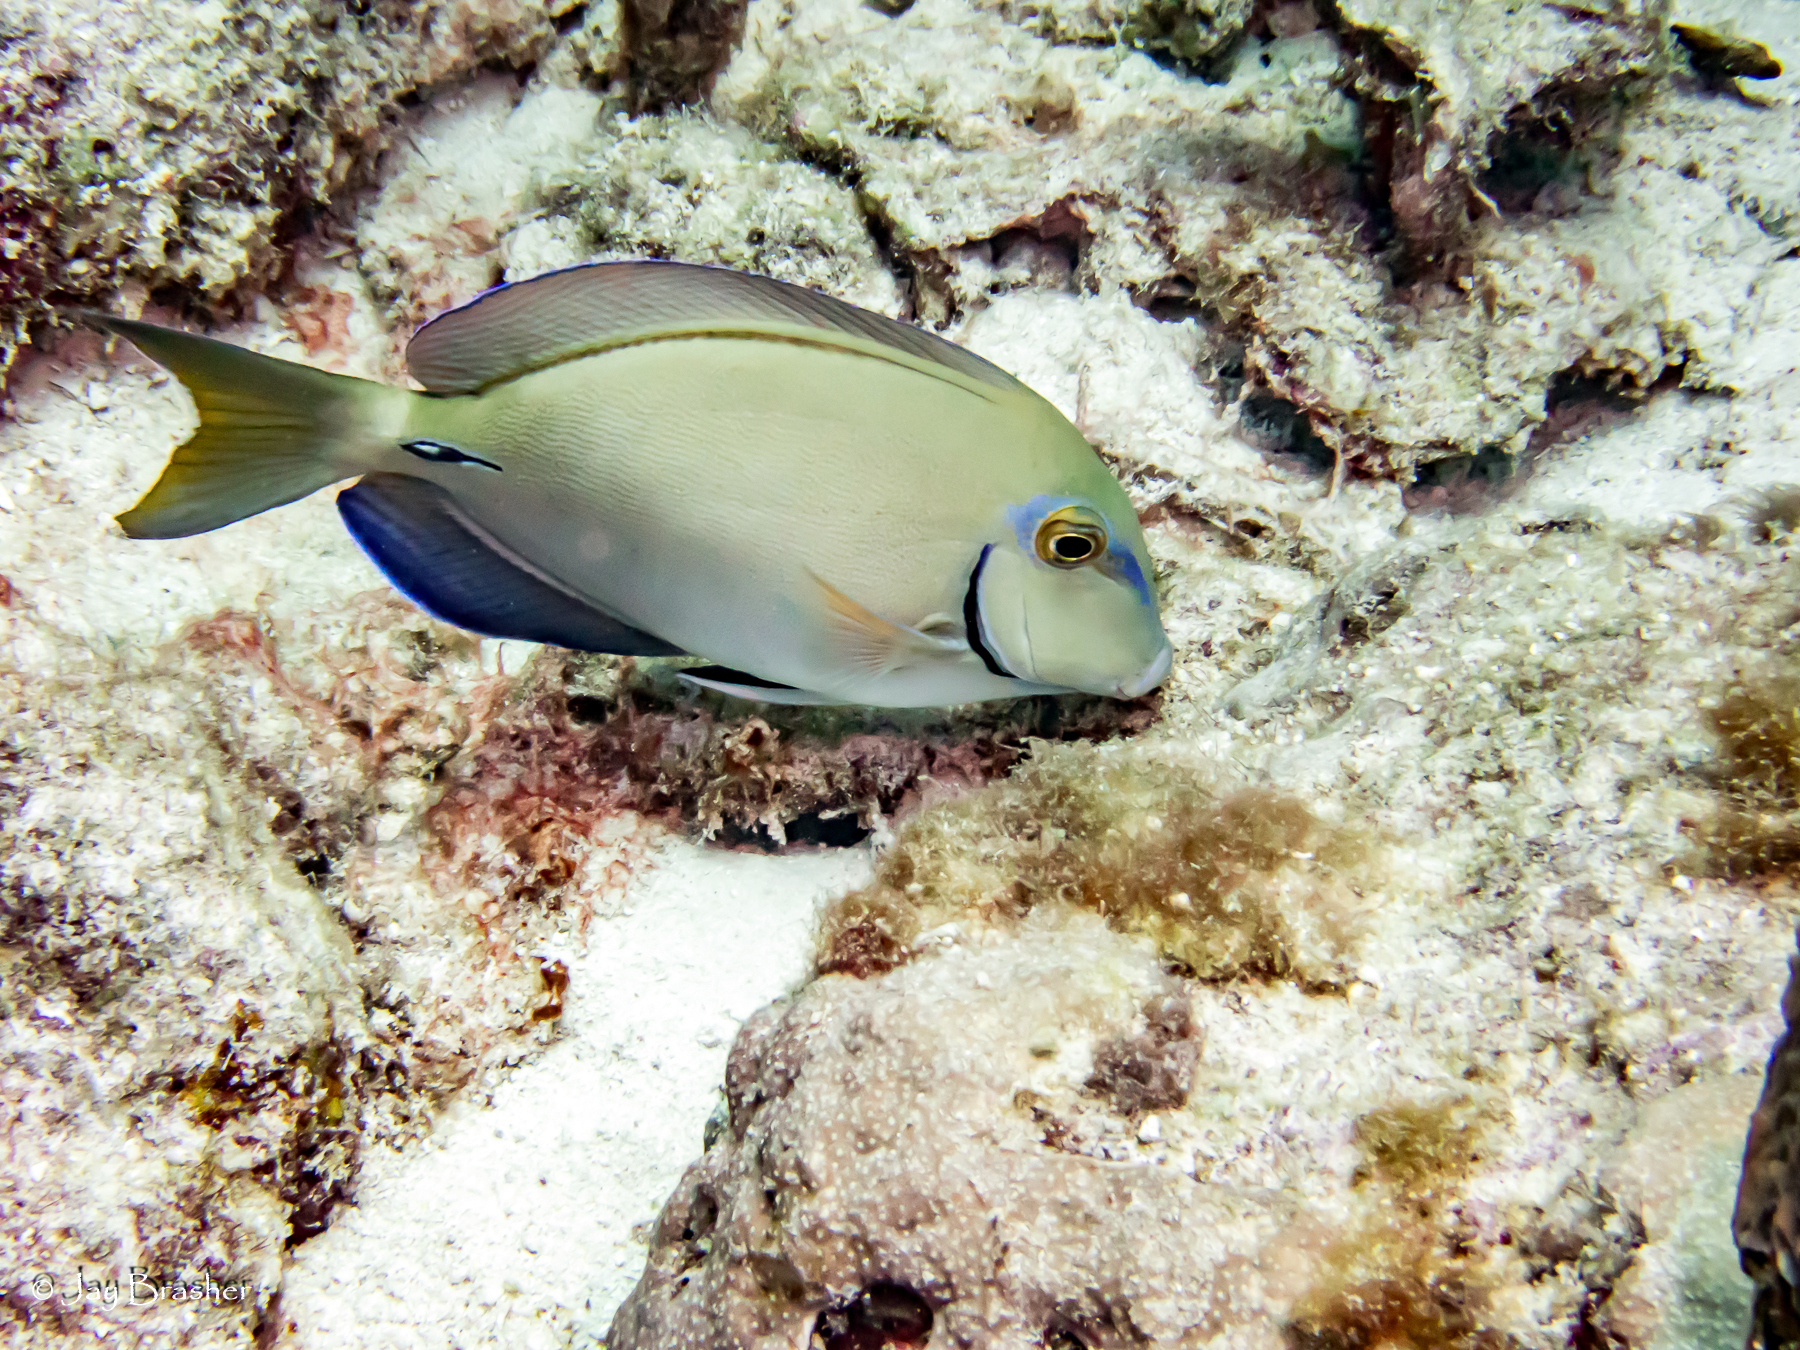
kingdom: Animalia
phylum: Chordata
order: Perciformes
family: Acanthuridae
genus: Acanthurus
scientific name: Acanthurus bahianus
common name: Ocean surgeon
